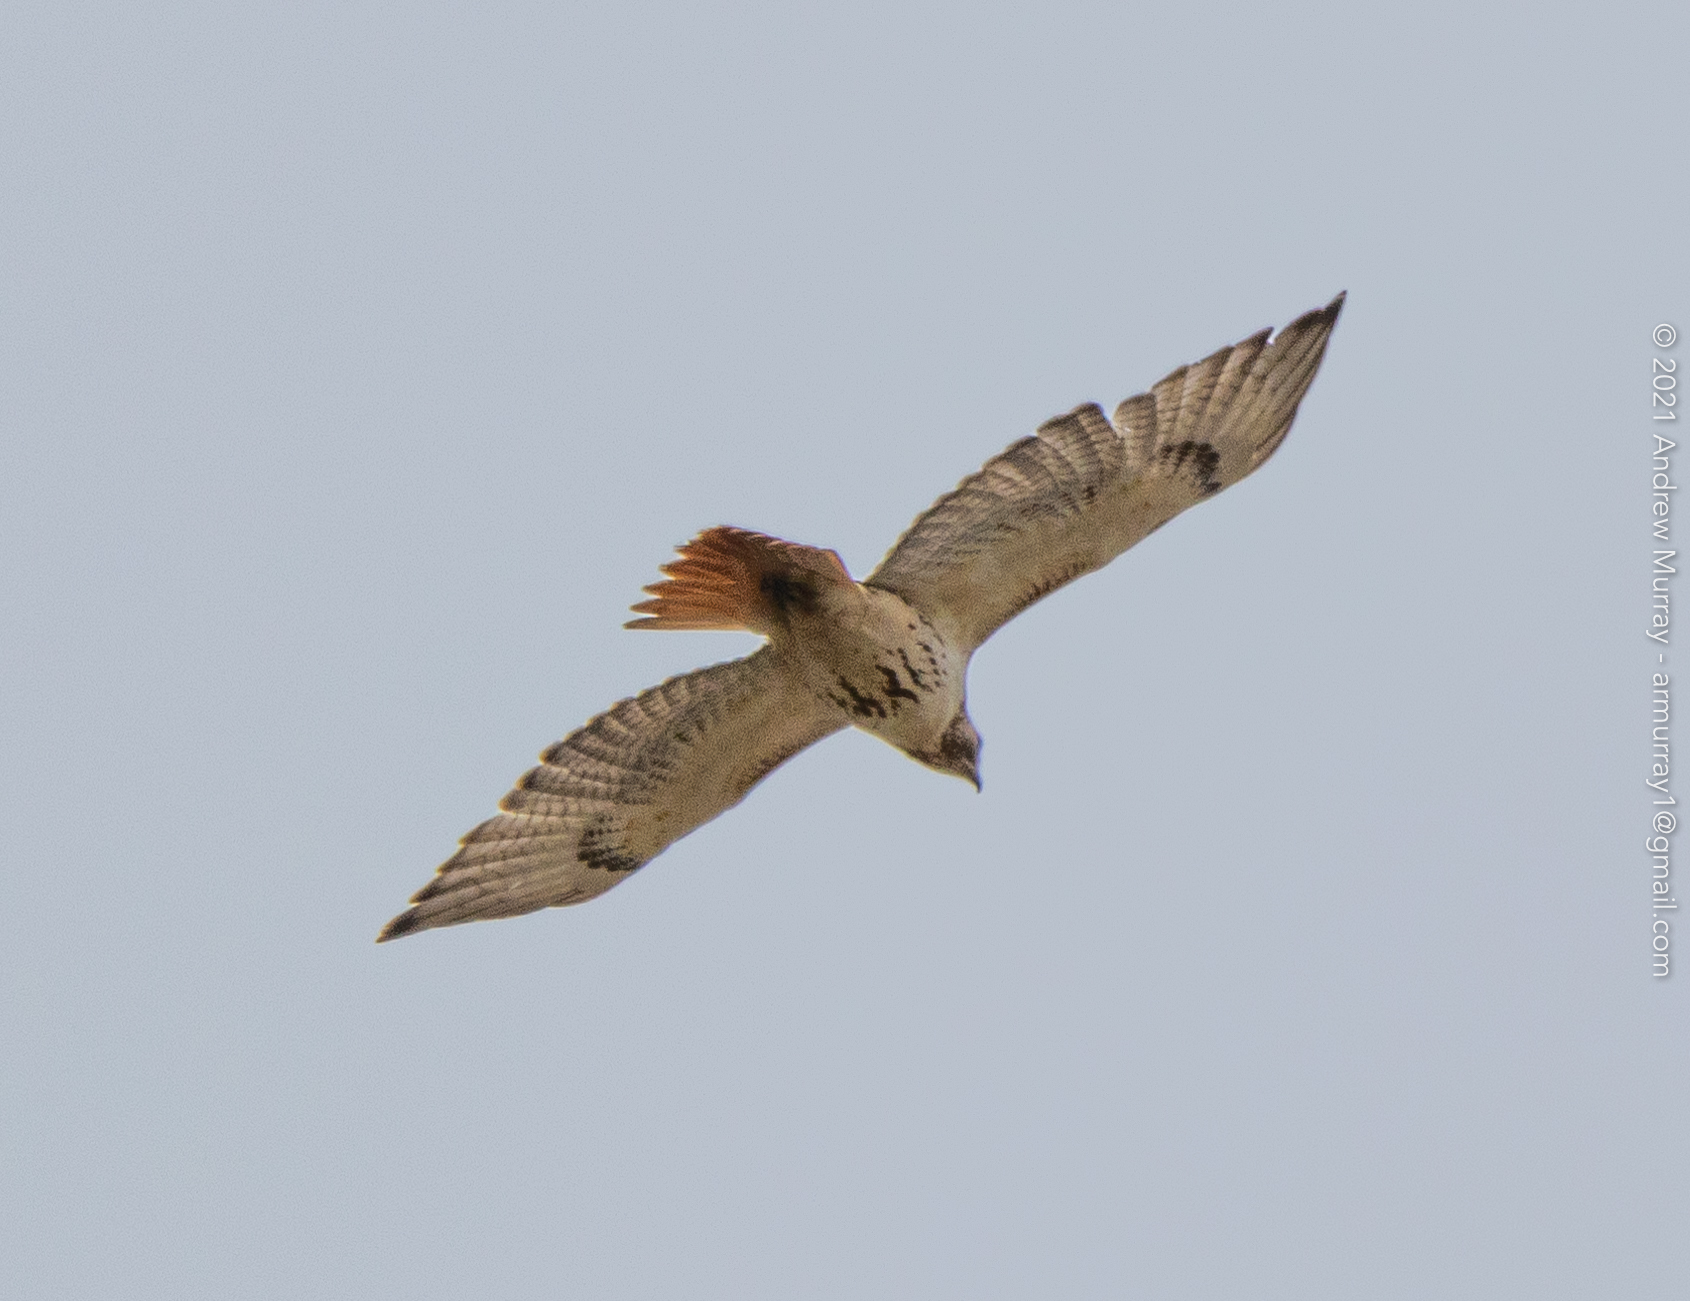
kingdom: Animalia
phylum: Chordata
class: Aves
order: Accipitriformes
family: Accipitridae
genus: Buteo
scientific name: Buteo jamaicensis
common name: Red-tailed hawk
